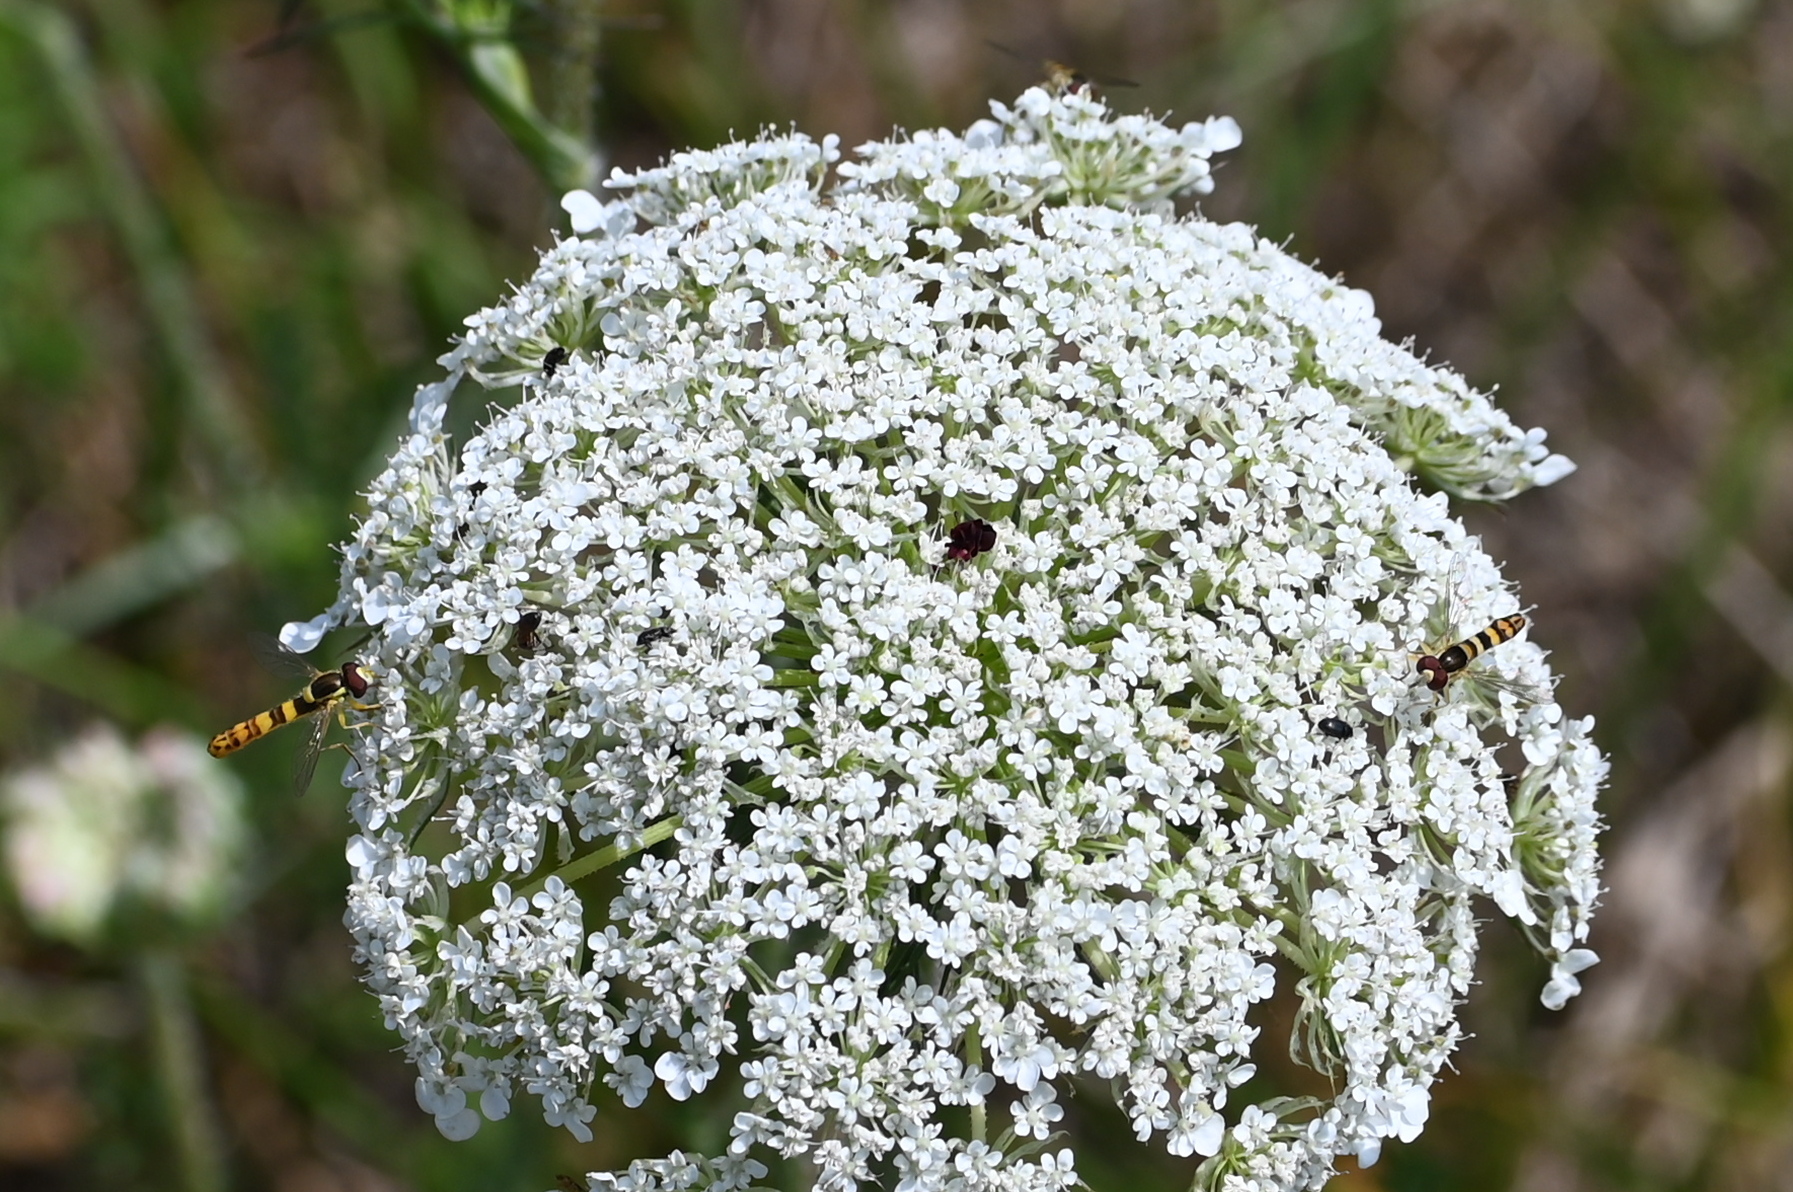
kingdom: Animalia
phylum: Arthropoda
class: Insecta
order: Diptera
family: Syrphidae
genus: Sphaerophoria
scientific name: Sphaerophoria scripta
